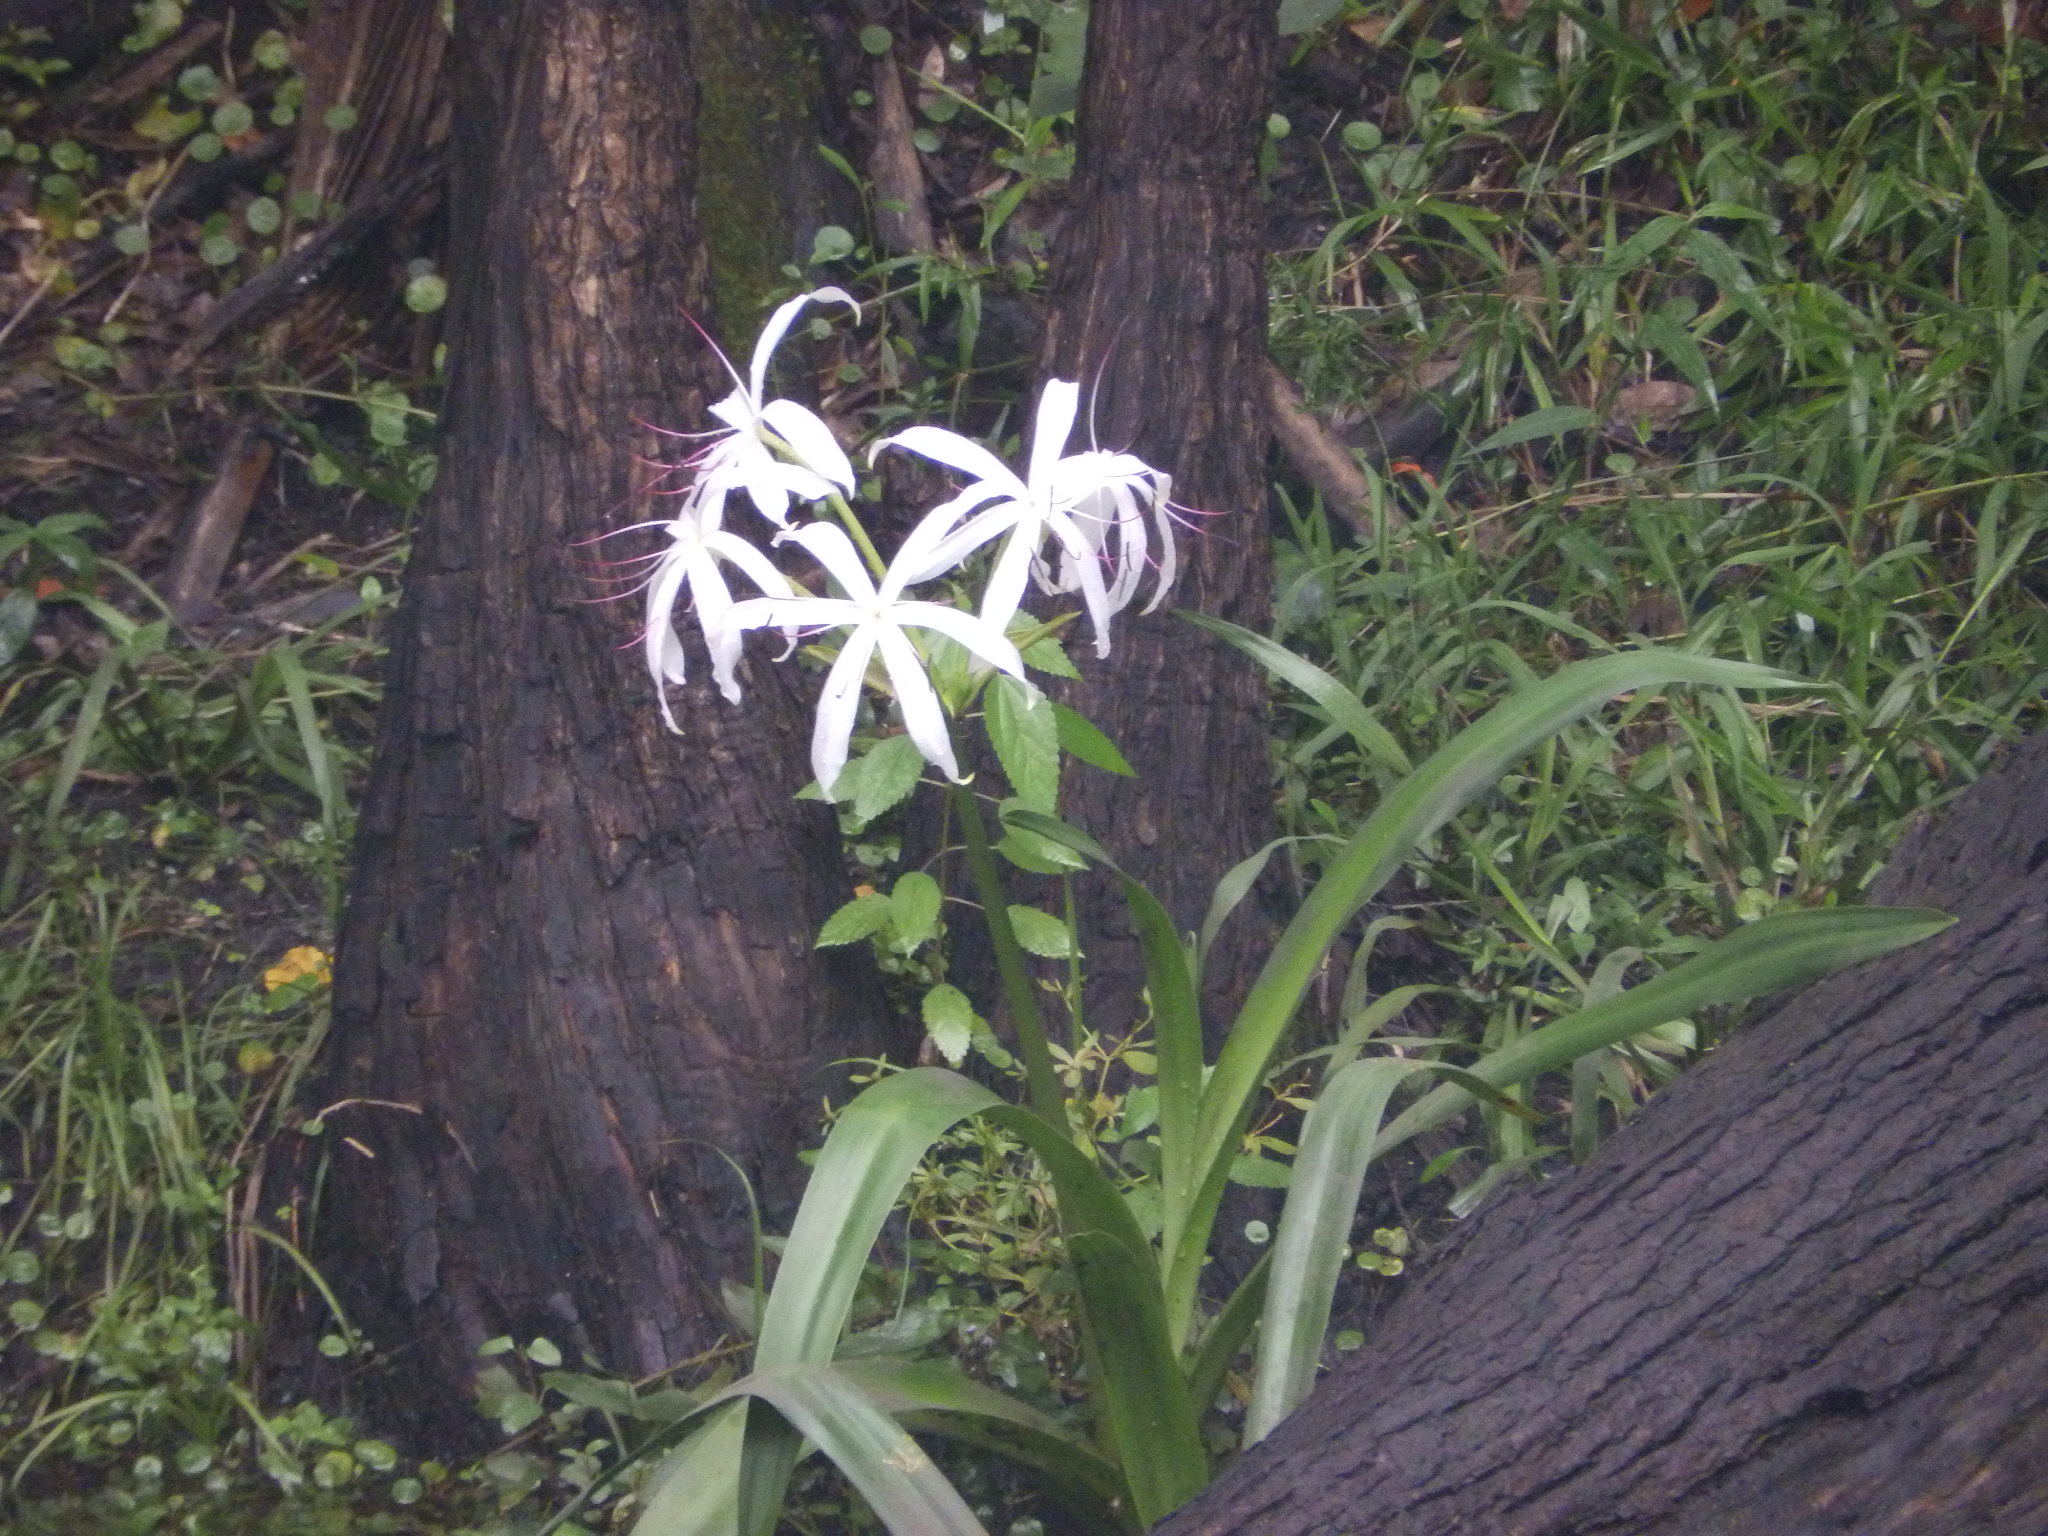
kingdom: Plantae
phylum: Tracheophyta
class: Liliopsida
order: Asparagales
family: Amaryllidaceae
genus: Crinum
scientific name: Crinum americanum
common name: Florida swamp-lily
